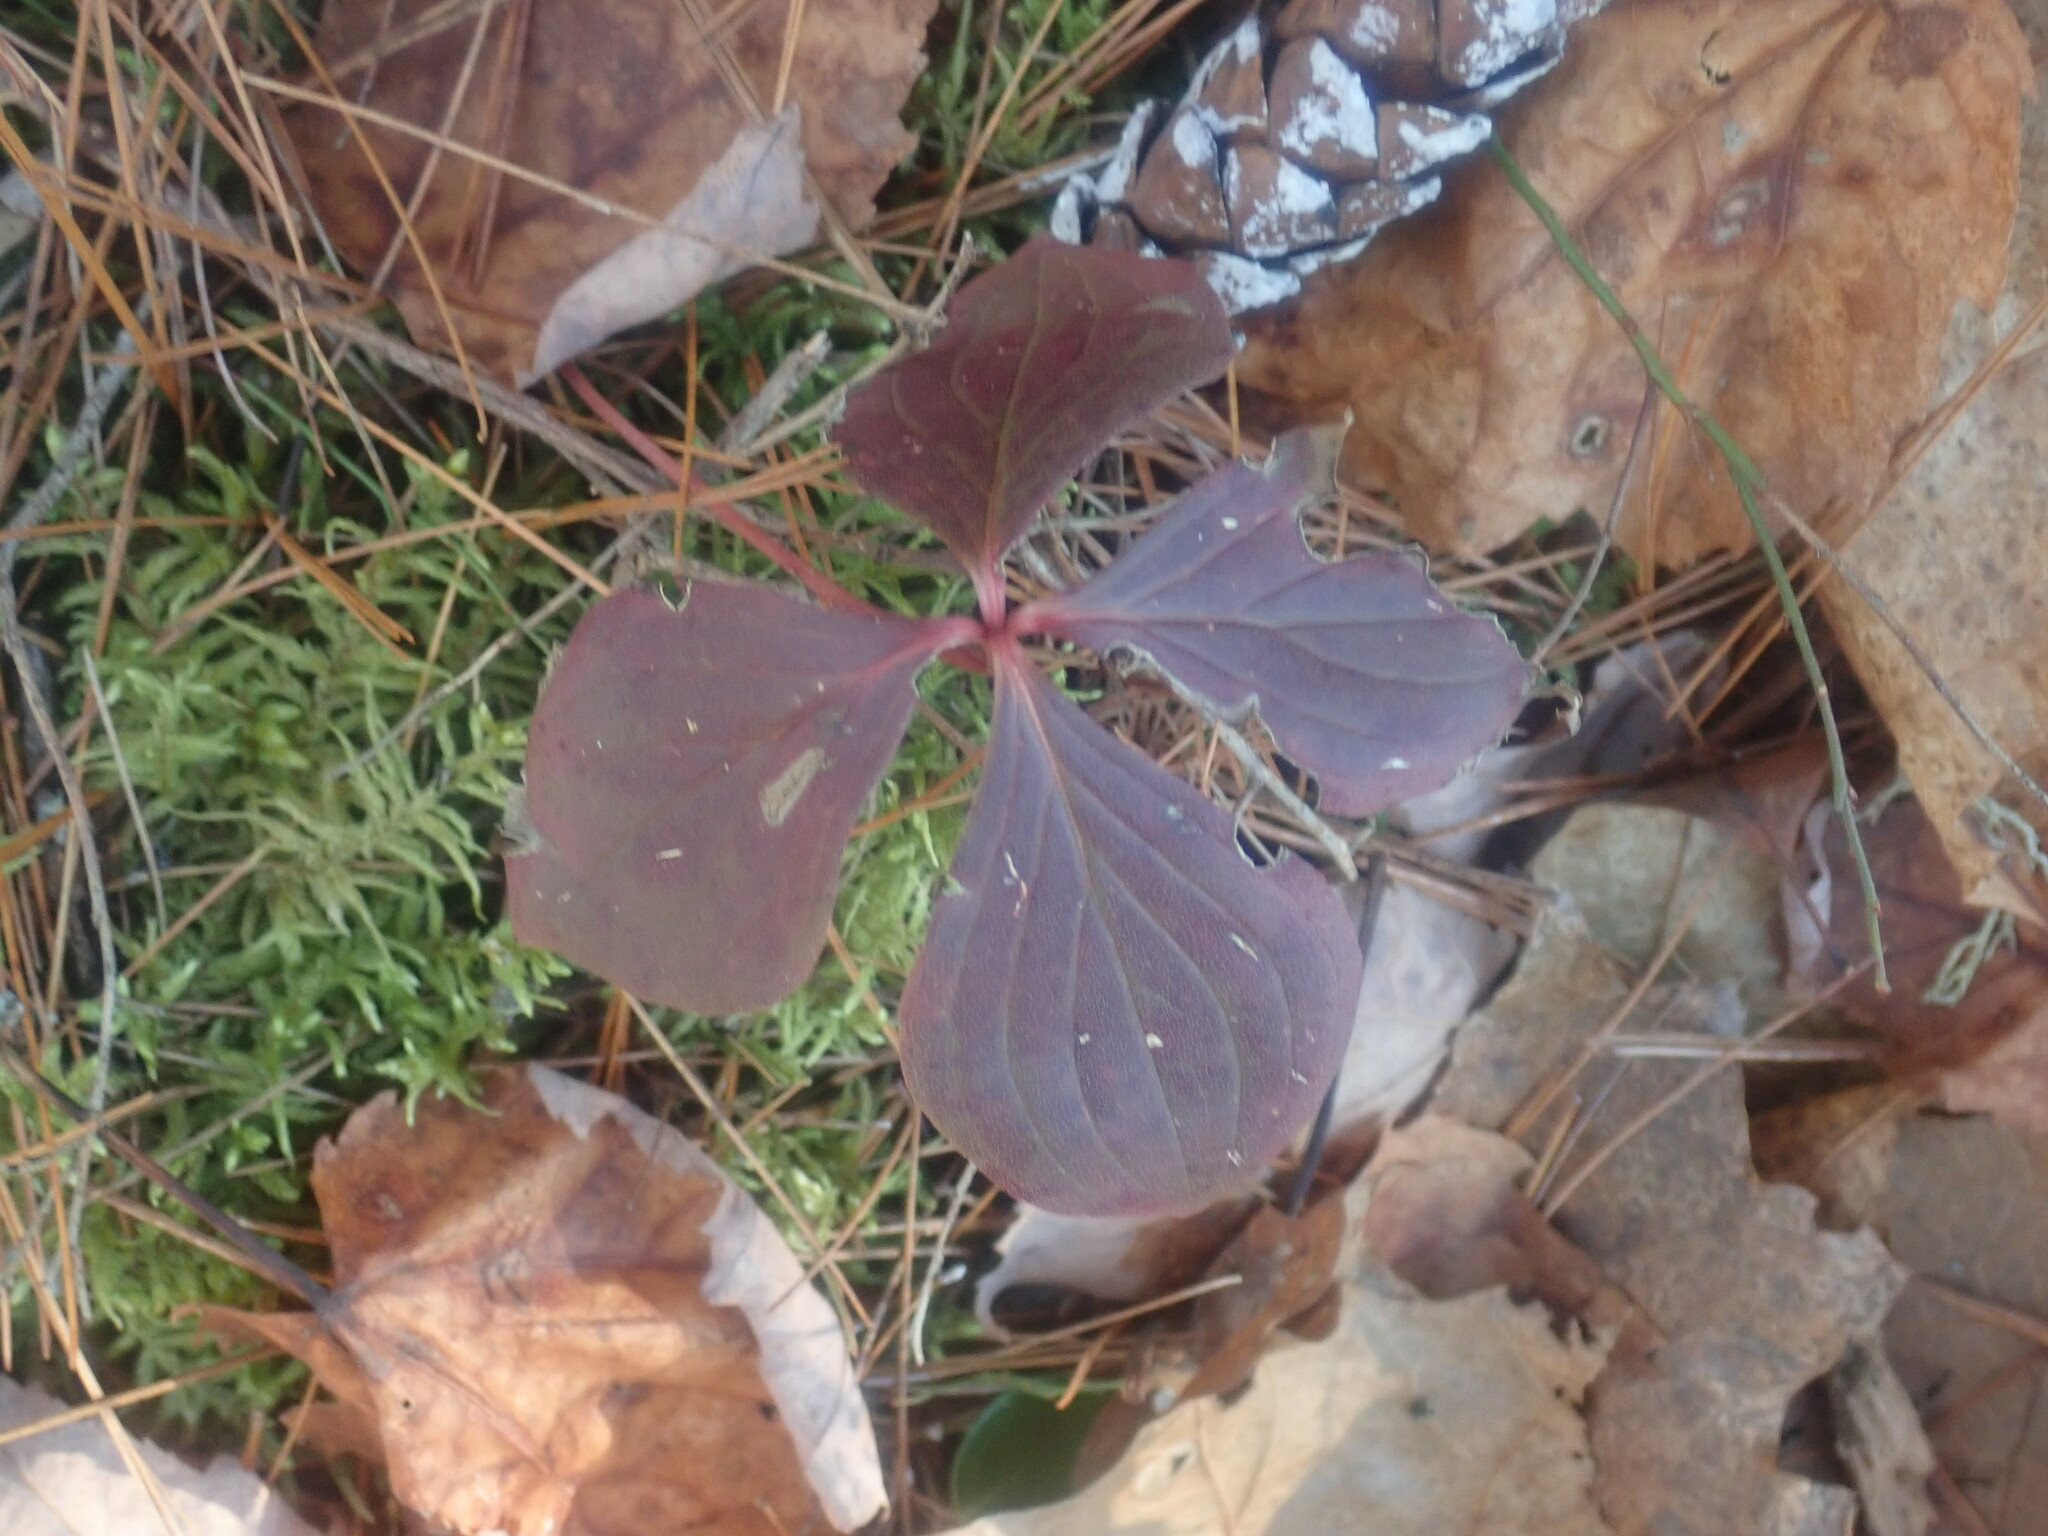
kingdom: Plantae
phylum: Tracheophyta
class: Magnoliopsida
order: Cornales
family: Cornaceae
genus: Cornus
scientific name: Cornus canadensis
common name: Creeping dogwood
